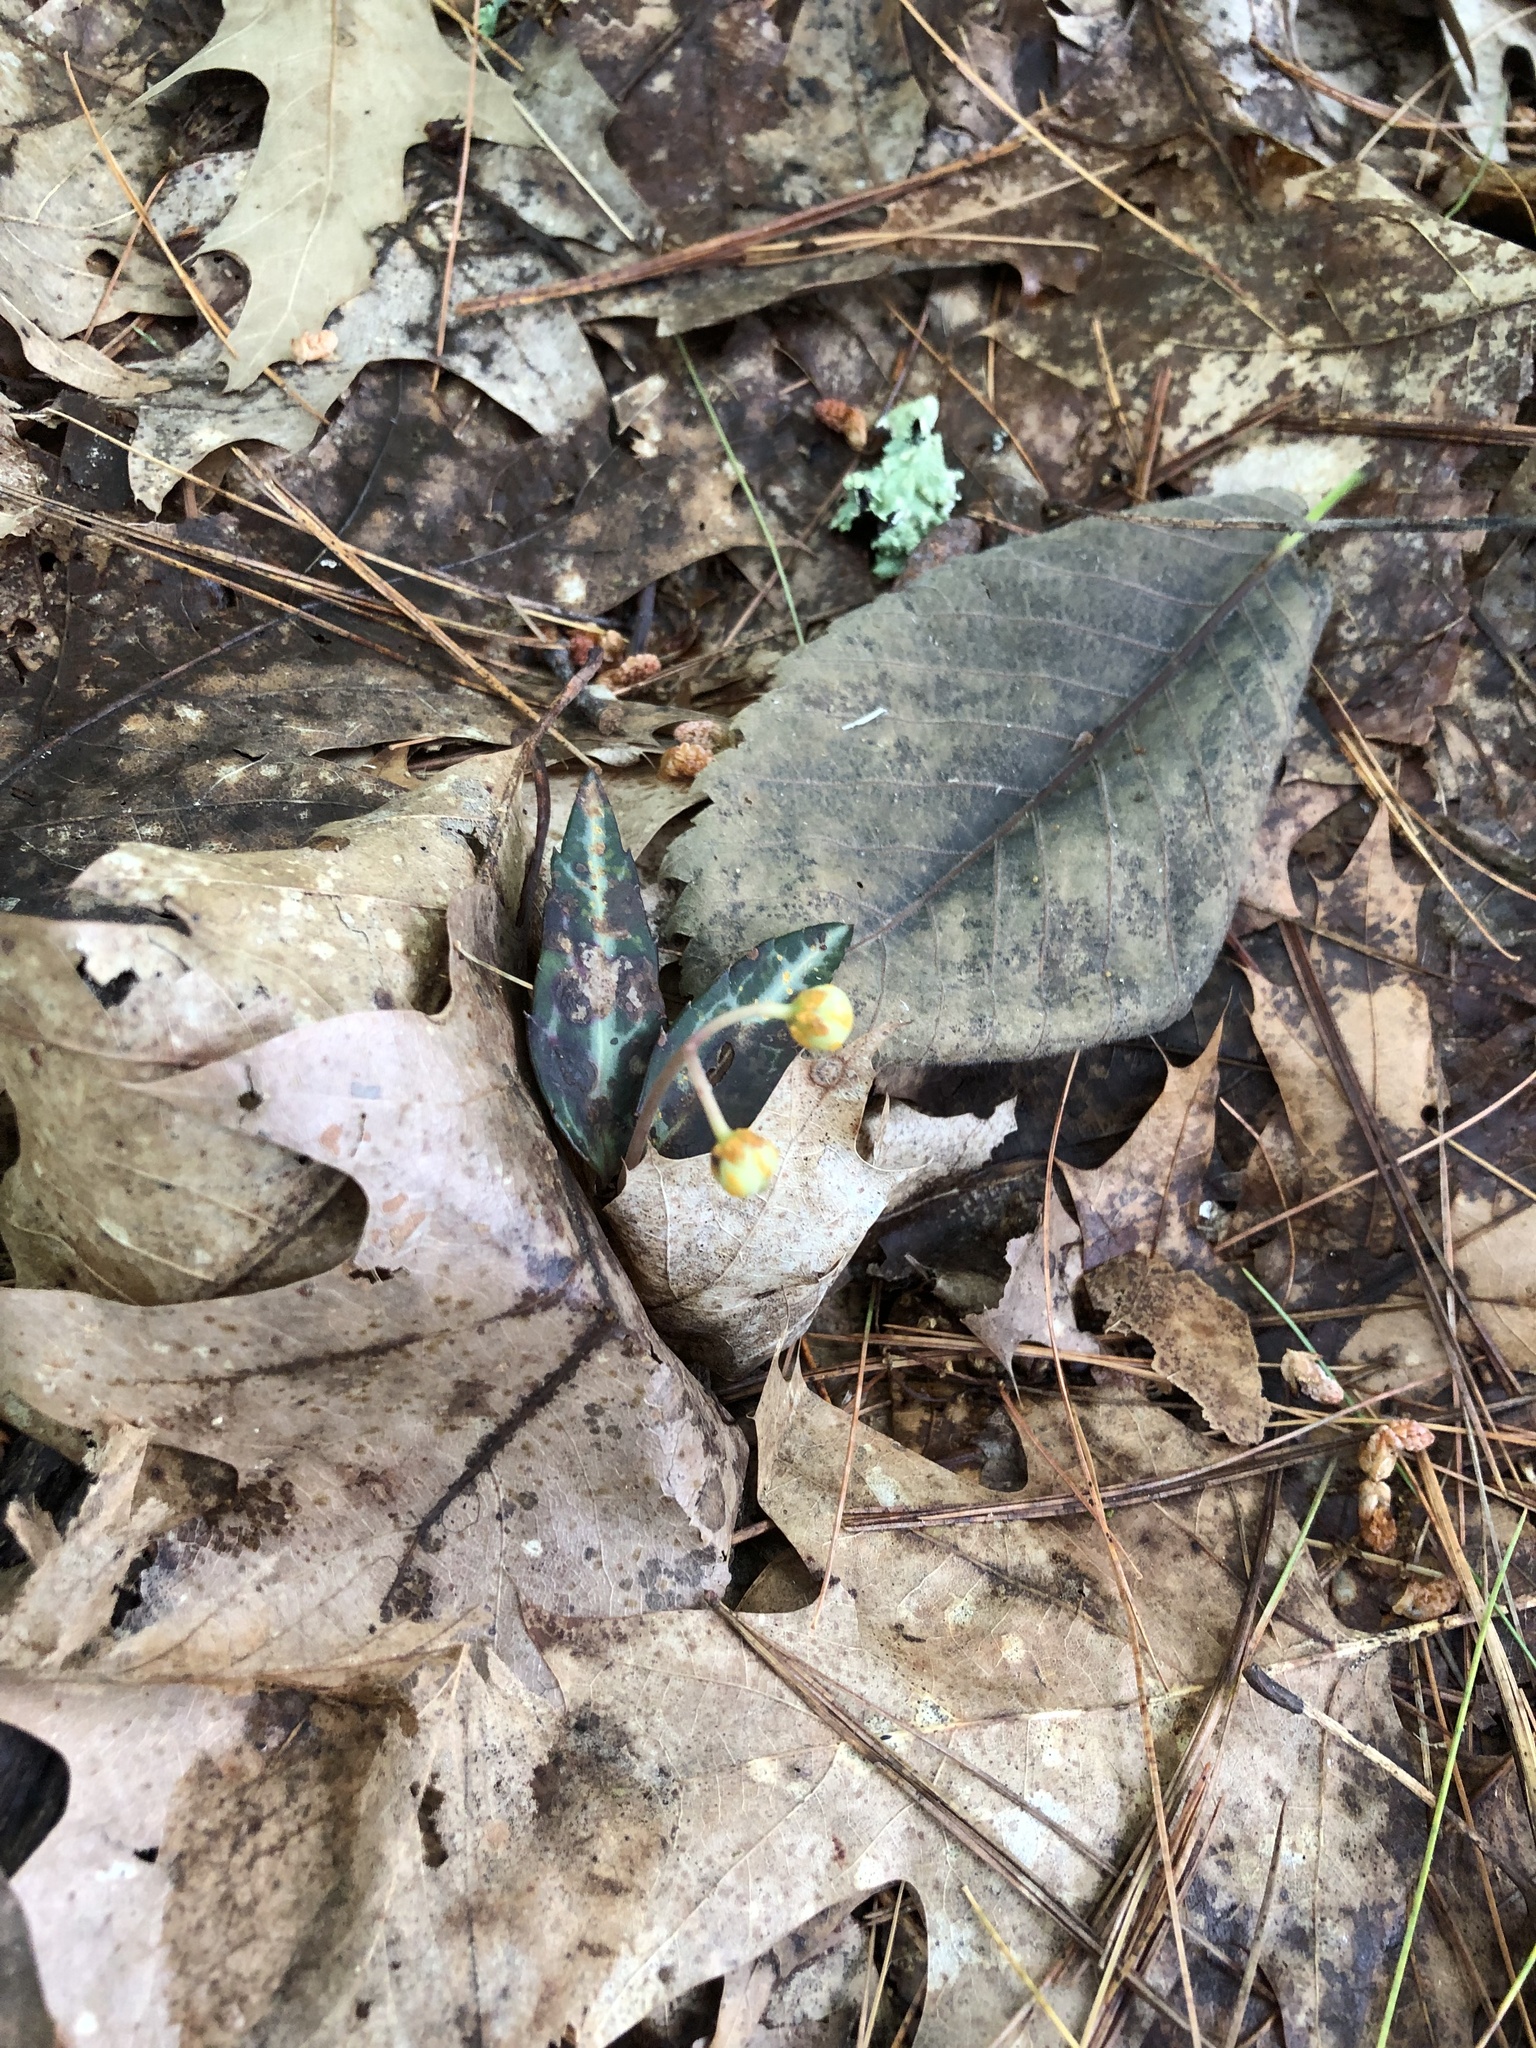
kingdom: Plantae
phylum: Tracheophyta
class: Magnoliopsida
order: Ericales
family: Ericaceae
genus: Chimaphila
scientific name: Chimaphila maculata
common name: Spotted pipsissewa
